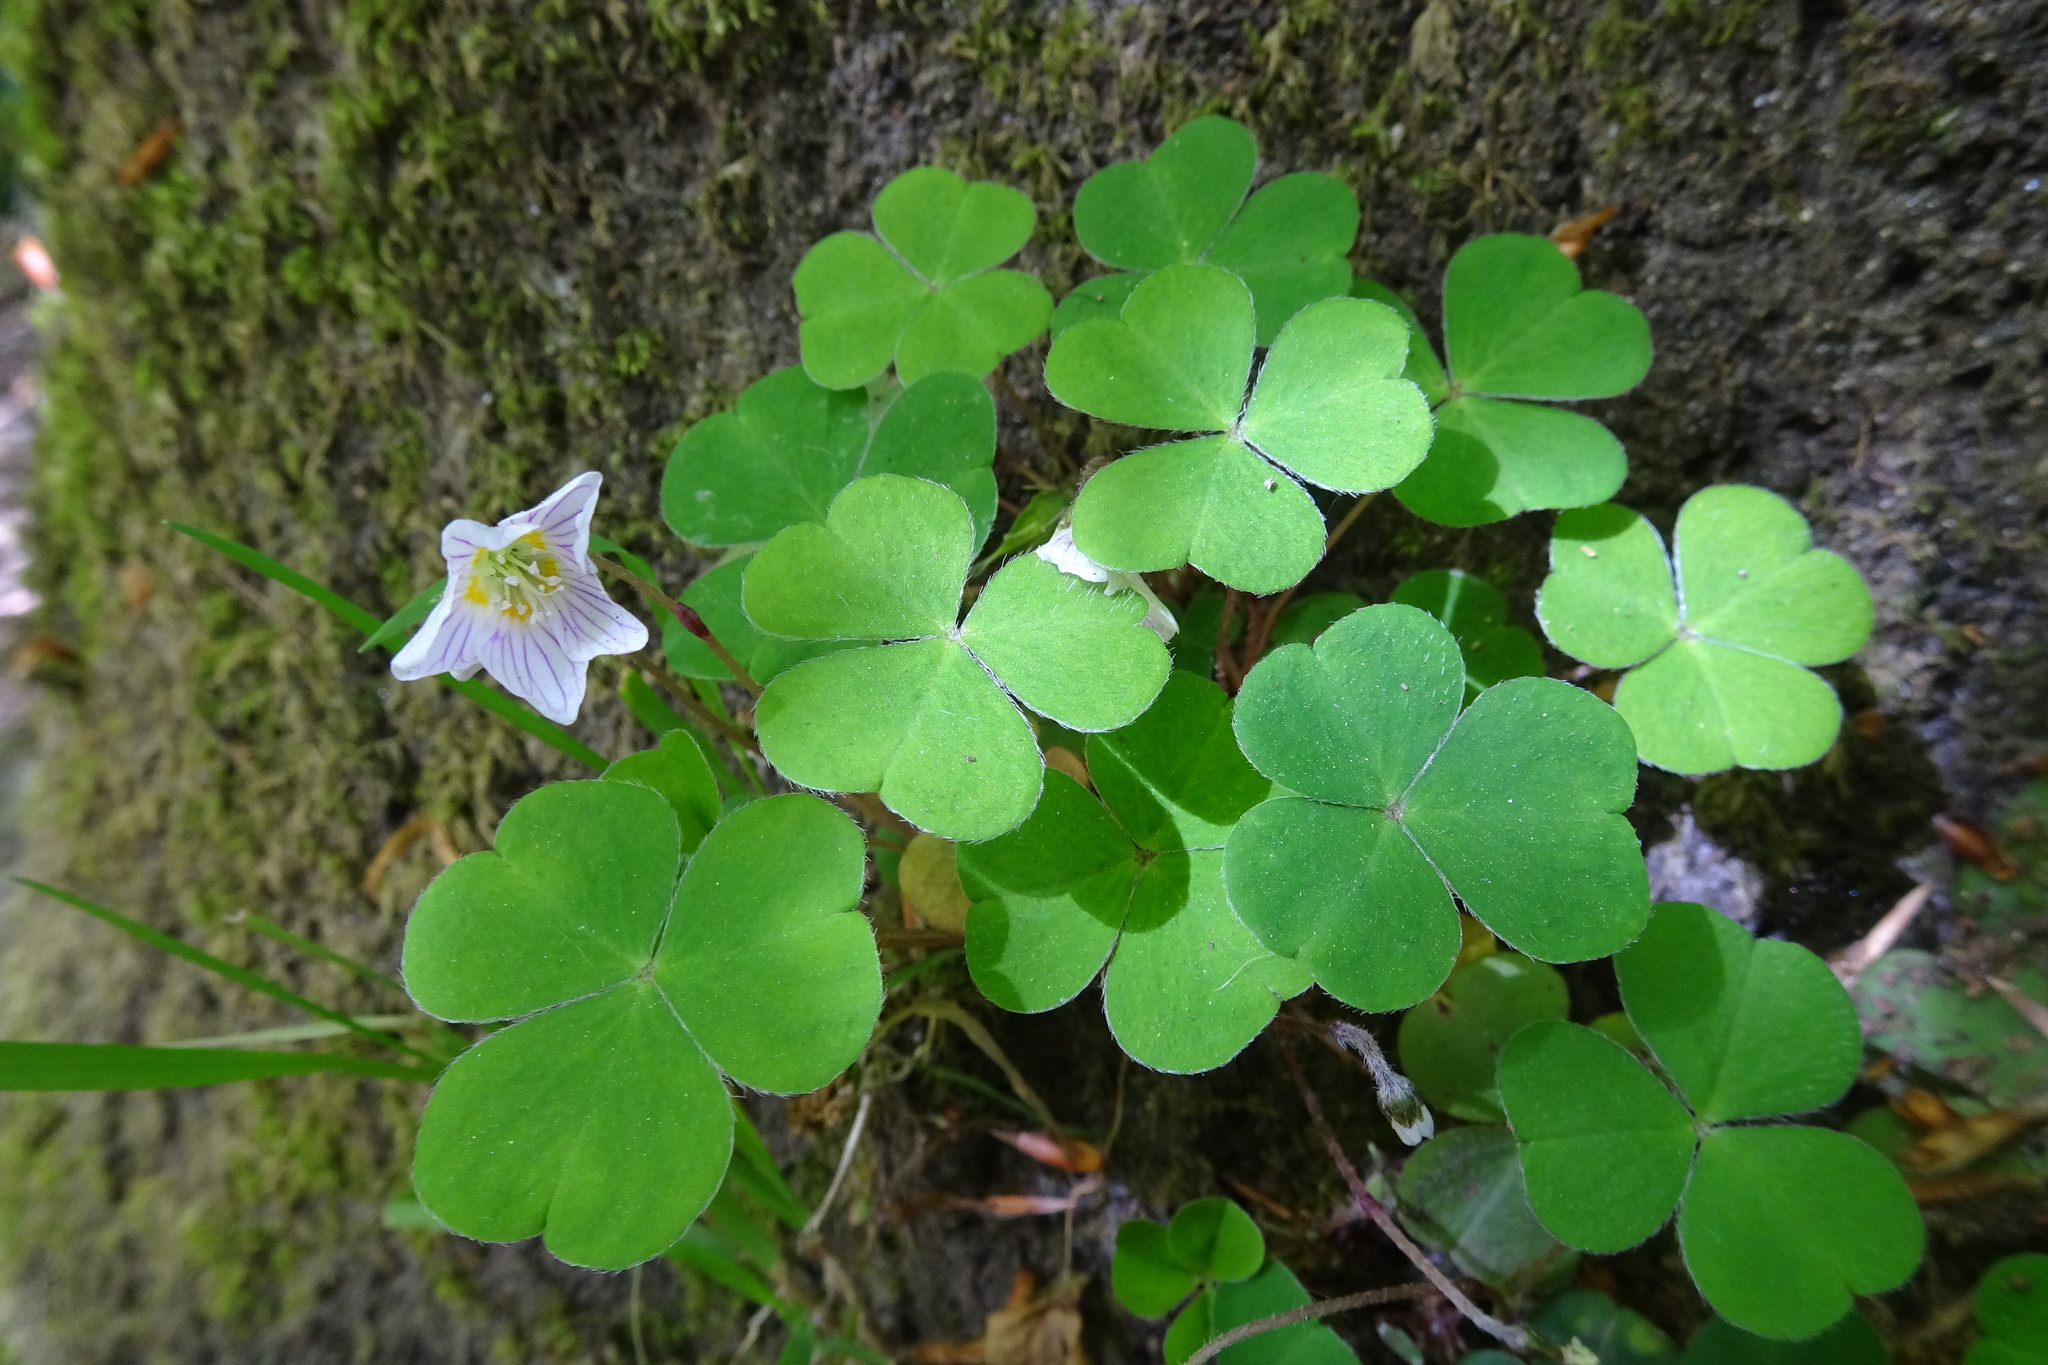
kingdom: Plantae
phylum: Tracheophyta
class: Magnoliopsida
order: Oxalidales
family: Oxalidaceae
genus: Oxalis
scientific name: Oxalis acetosella
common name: Wood-sorrel
